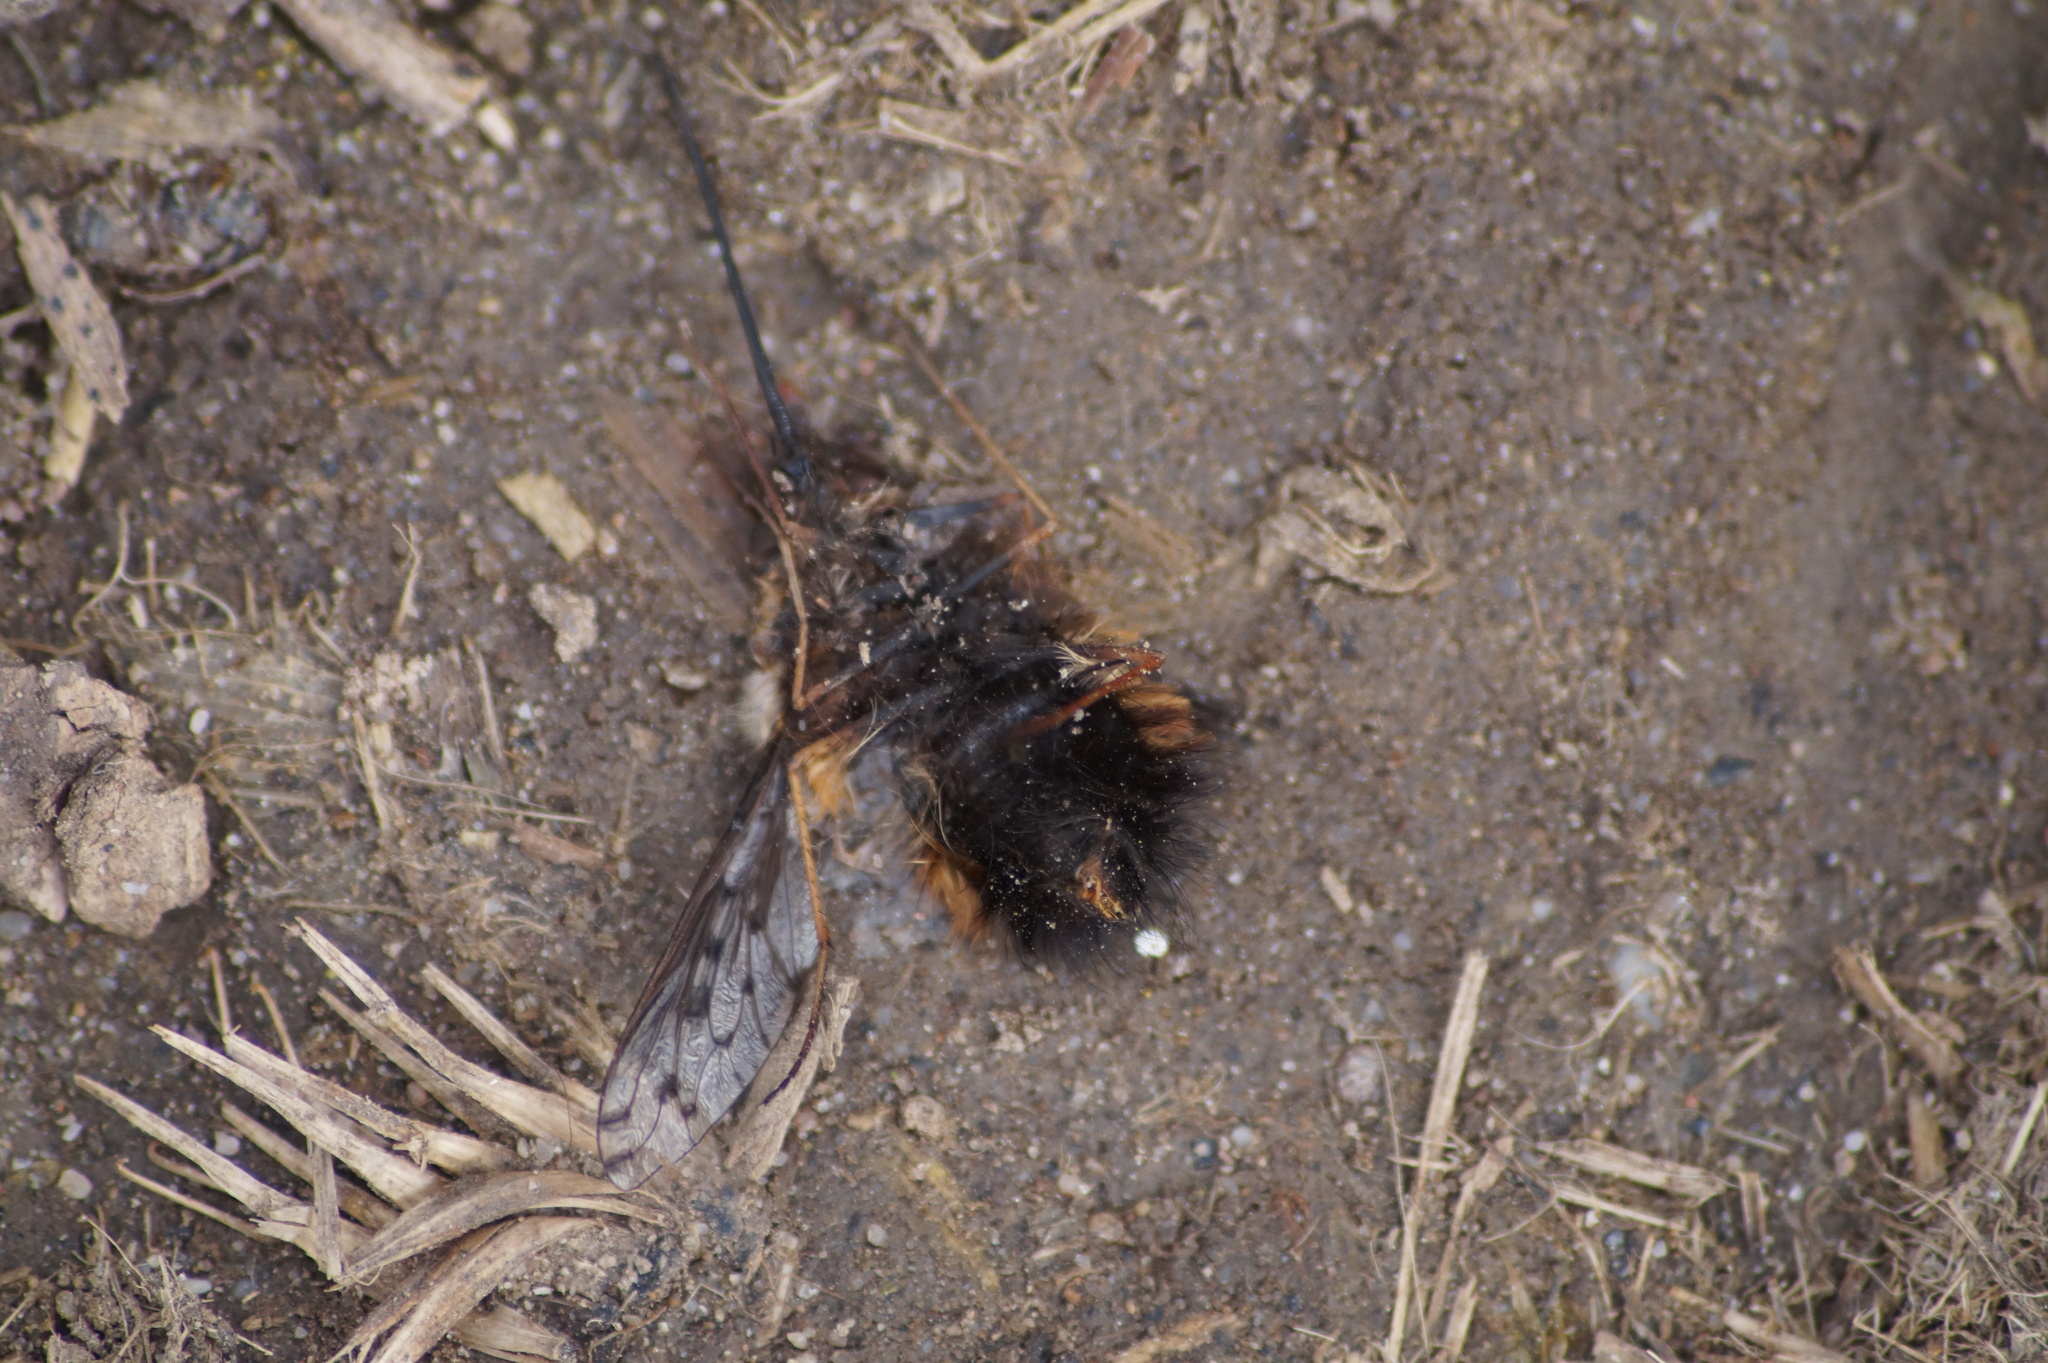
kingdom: Animalia
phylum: Arthropoda
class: Insecta
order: Diptera
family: Bombyliidae
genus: Bombylius
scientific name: Bombylius discolor
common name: Dotted bee-fly
